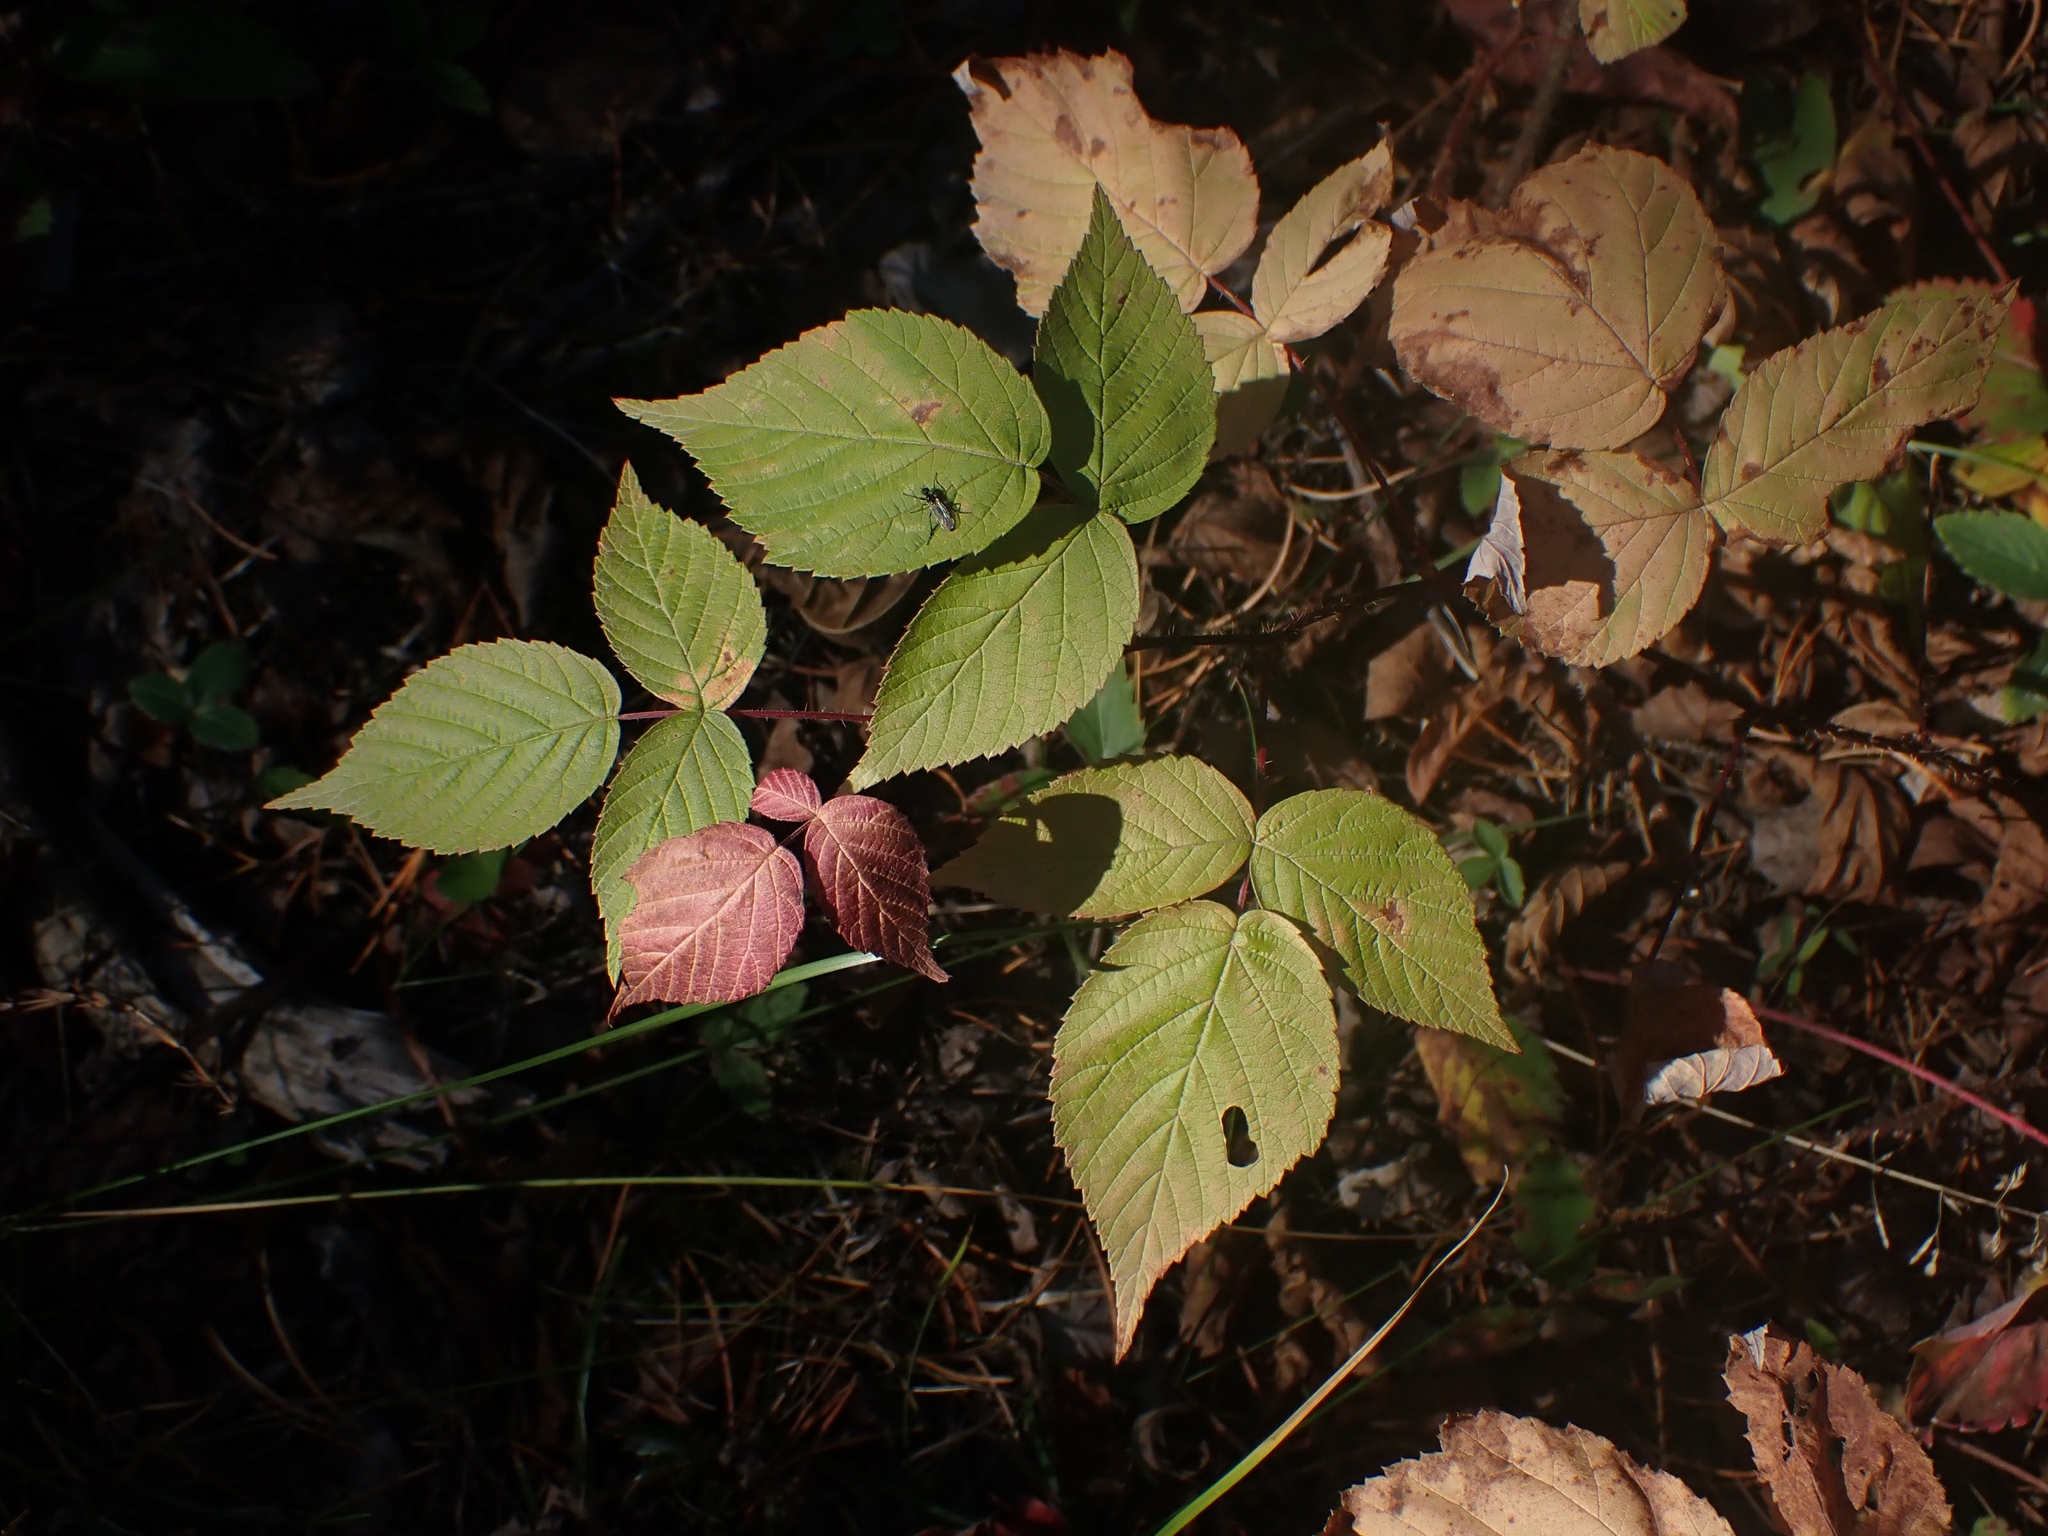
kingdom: Plantae
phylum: Tracheophyta
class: Magnoliopsida
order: Rosales
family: Rosaceae
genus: Rubus
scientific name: Rubus idaeus
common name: Raspberry
